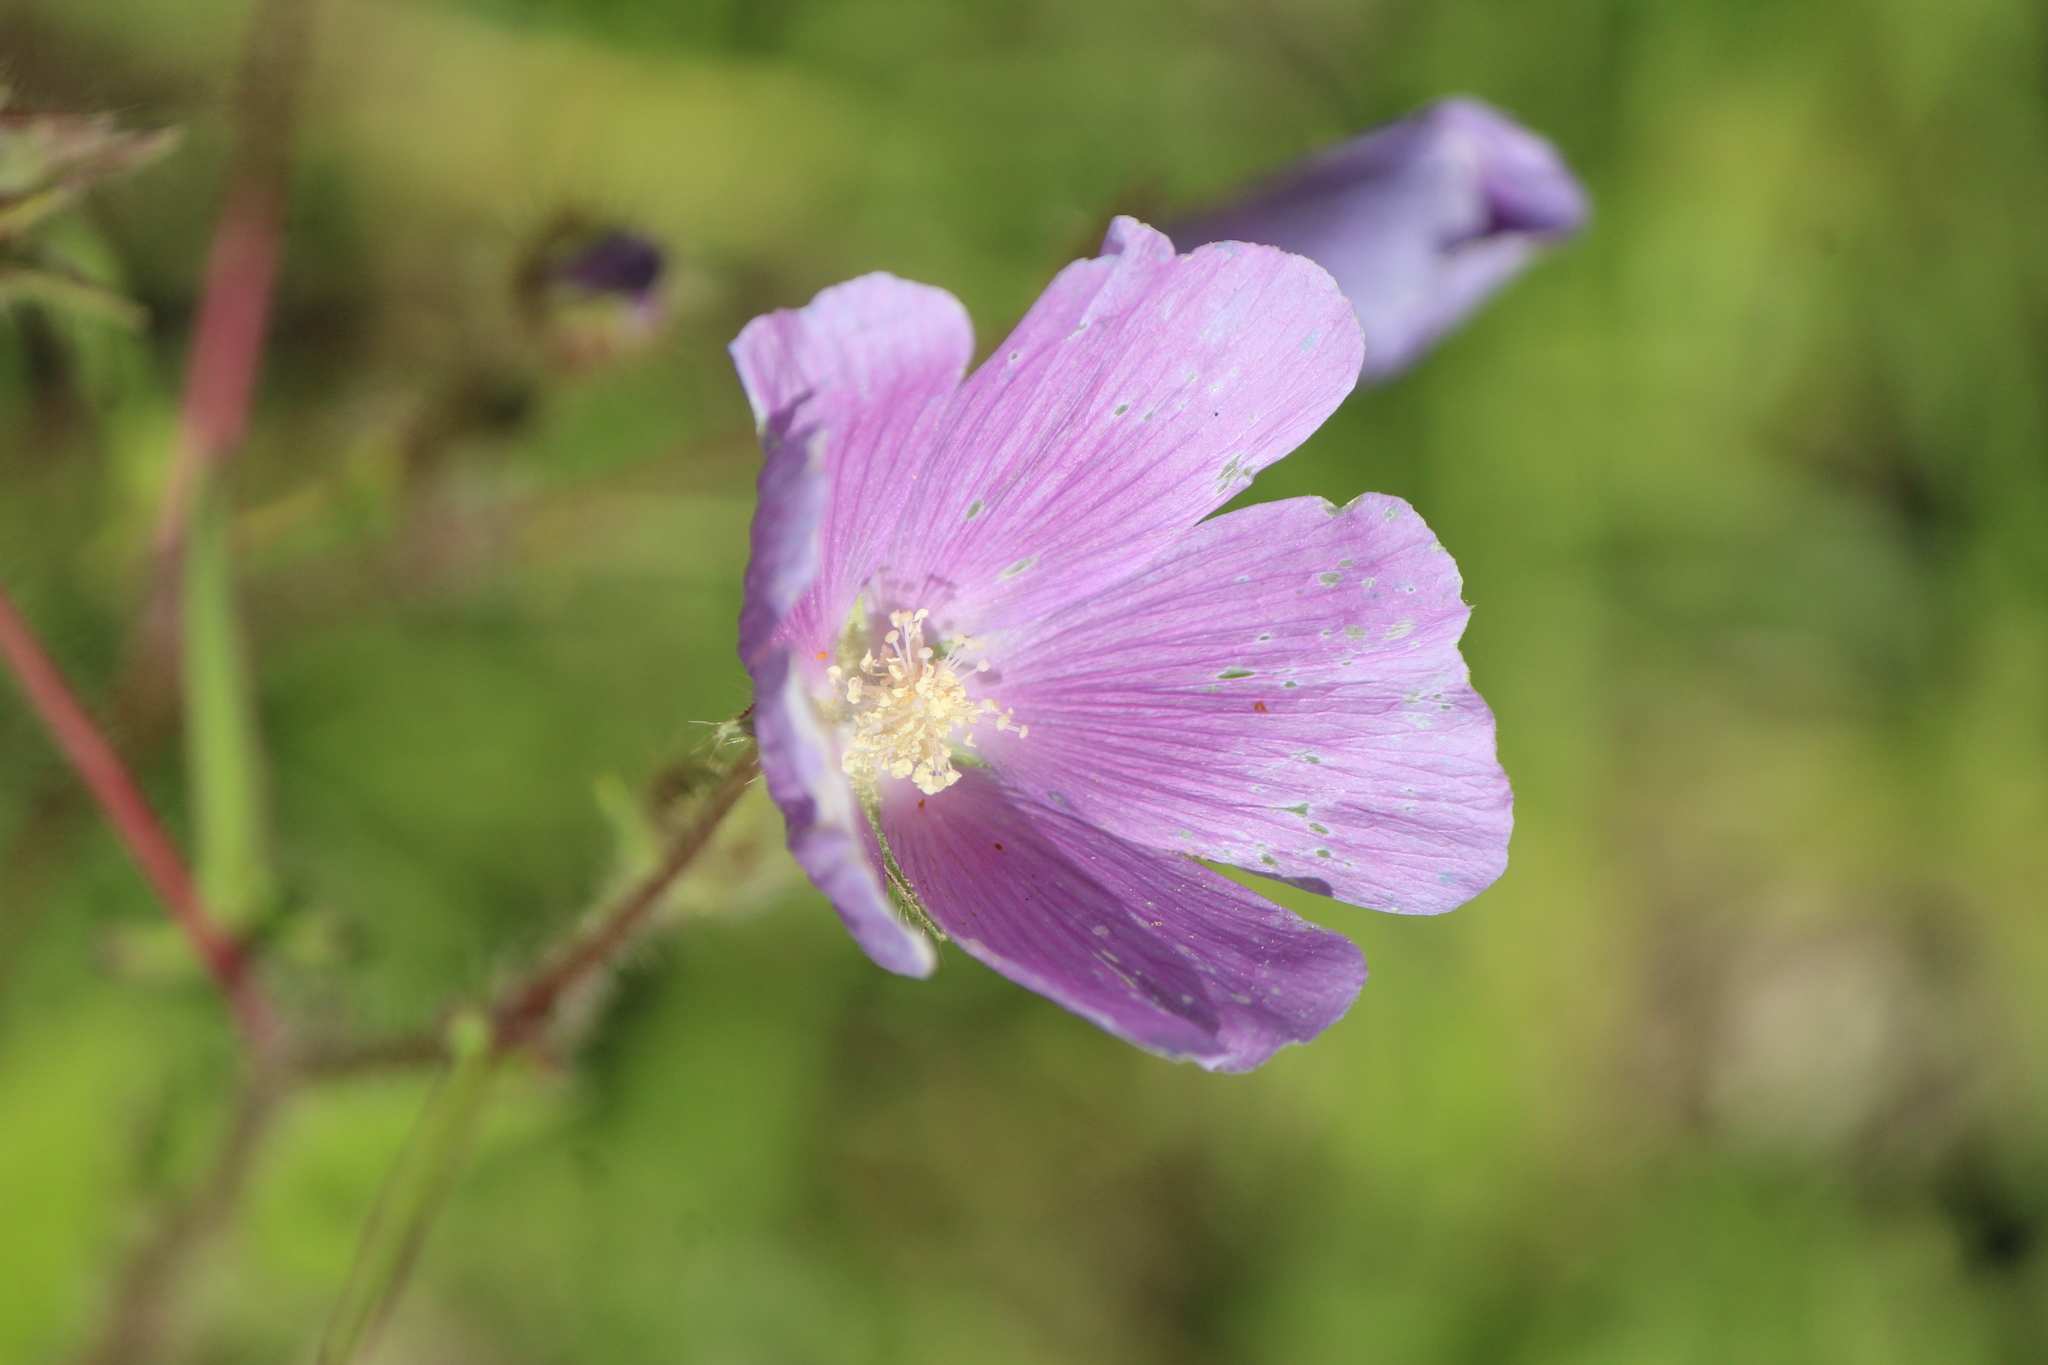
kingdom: Plantae
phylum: Tracheophyta
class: Magnoliopsida
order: Malvales
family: Malvaceae
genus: Anoda
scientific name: Anoda cristata
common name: Spurred anoda
